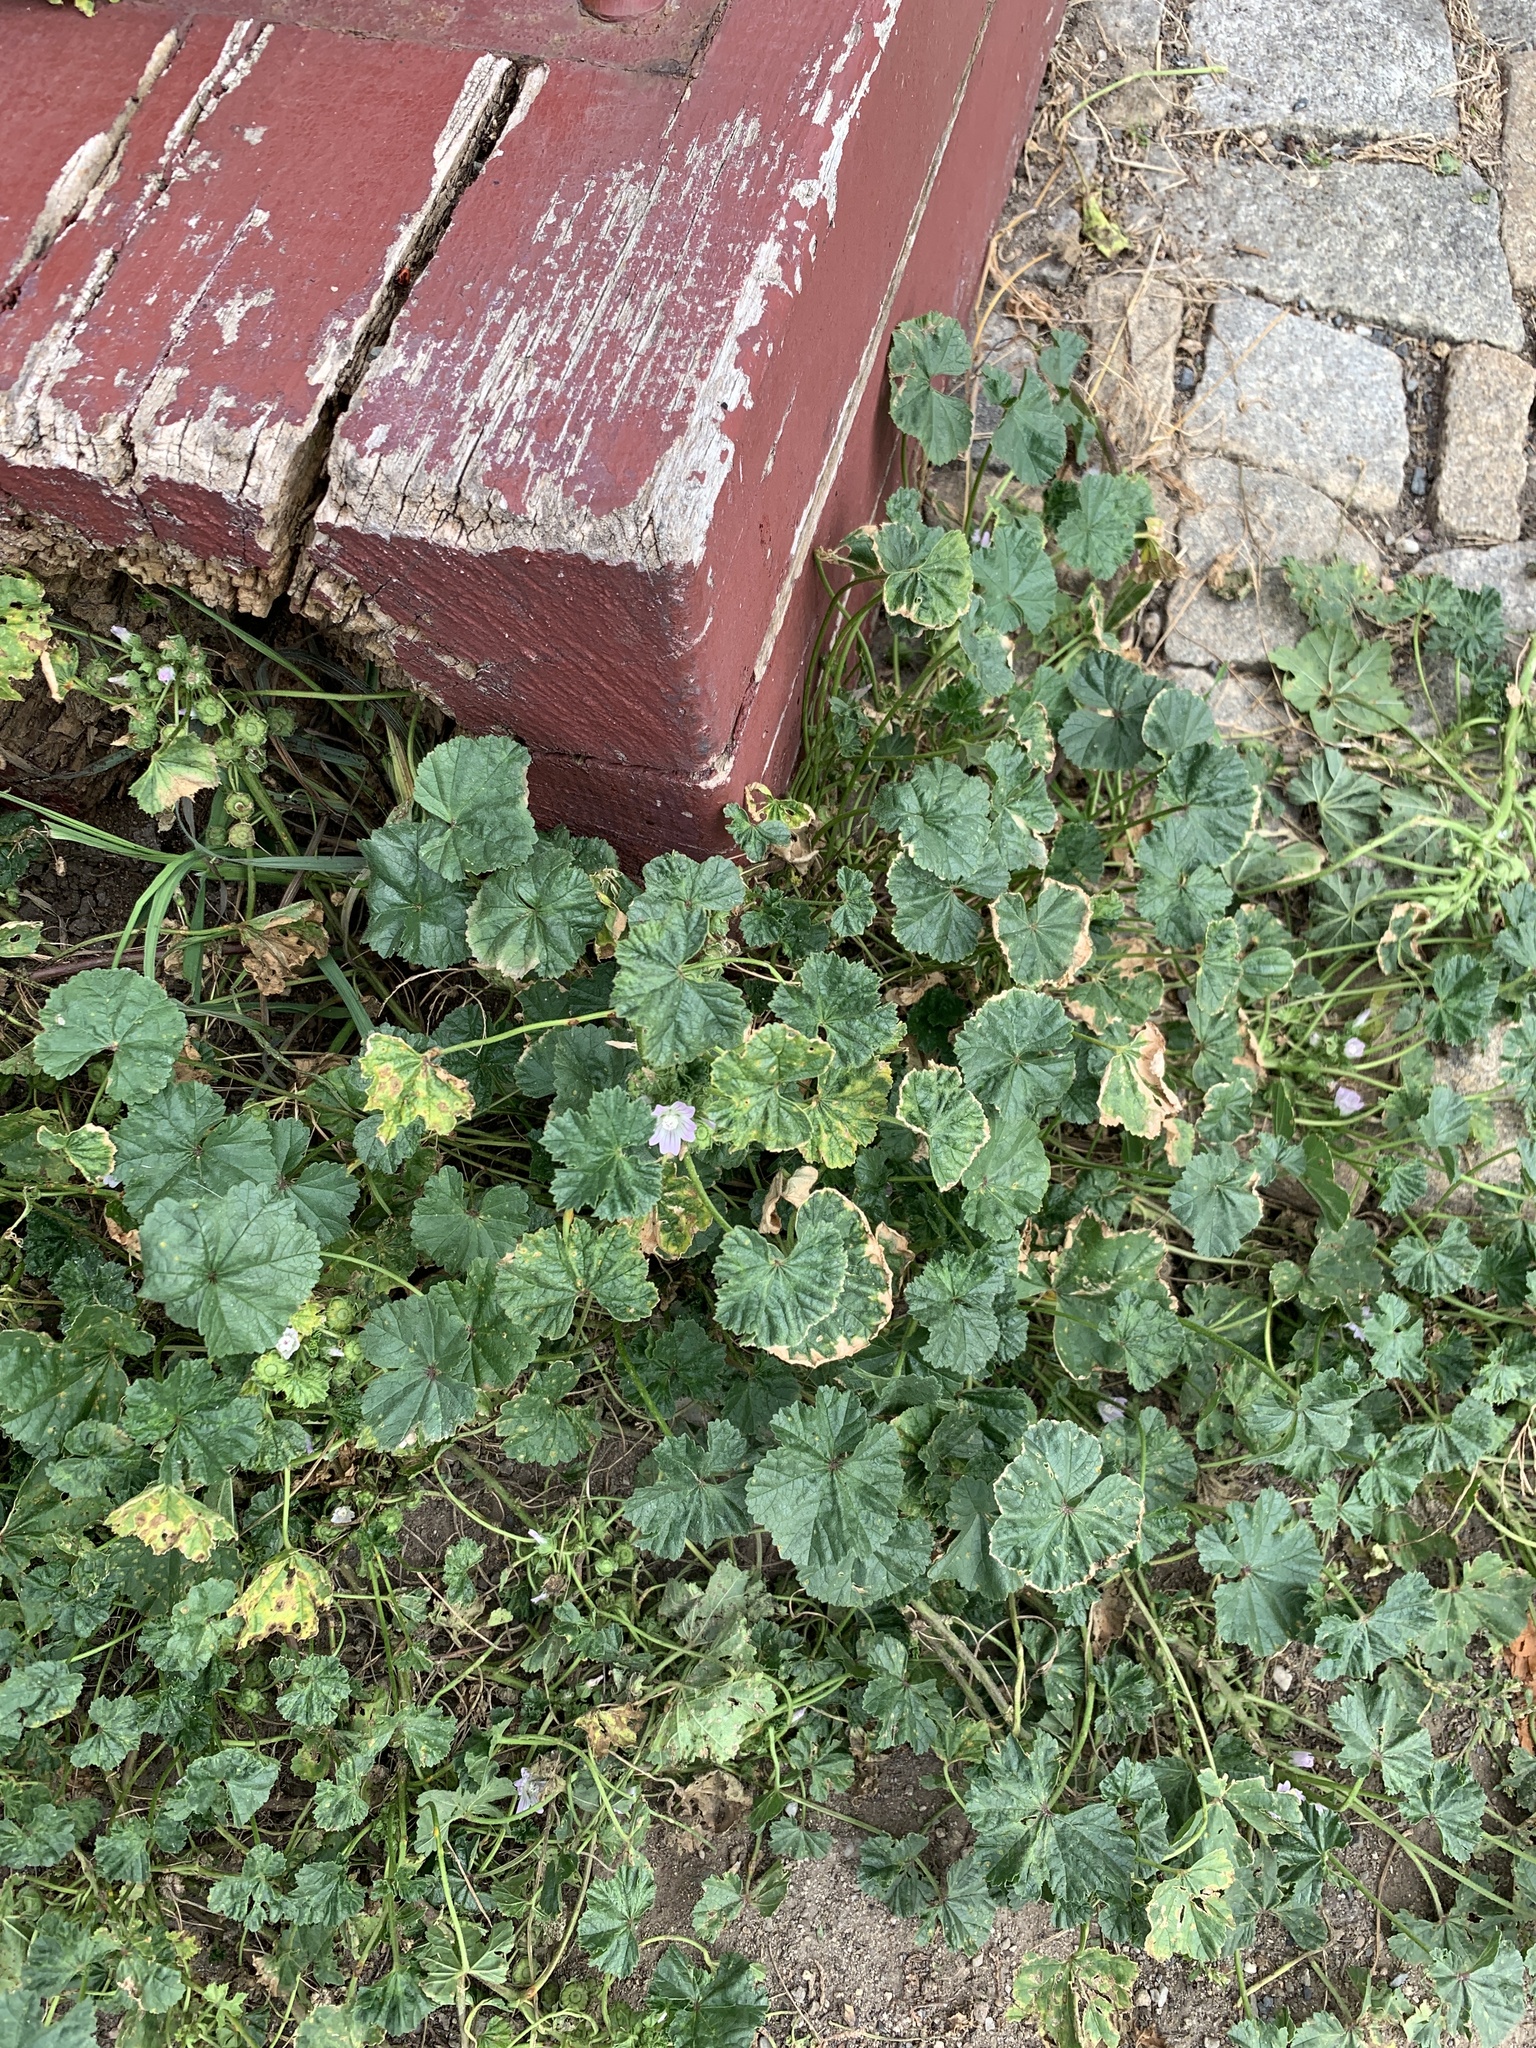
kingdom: Plantae
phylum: Tracheophyta
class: Magnoliopsida
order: Malvales
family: Malvaceae
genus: Malva
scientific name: Malva neglecta
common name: Common mallow
